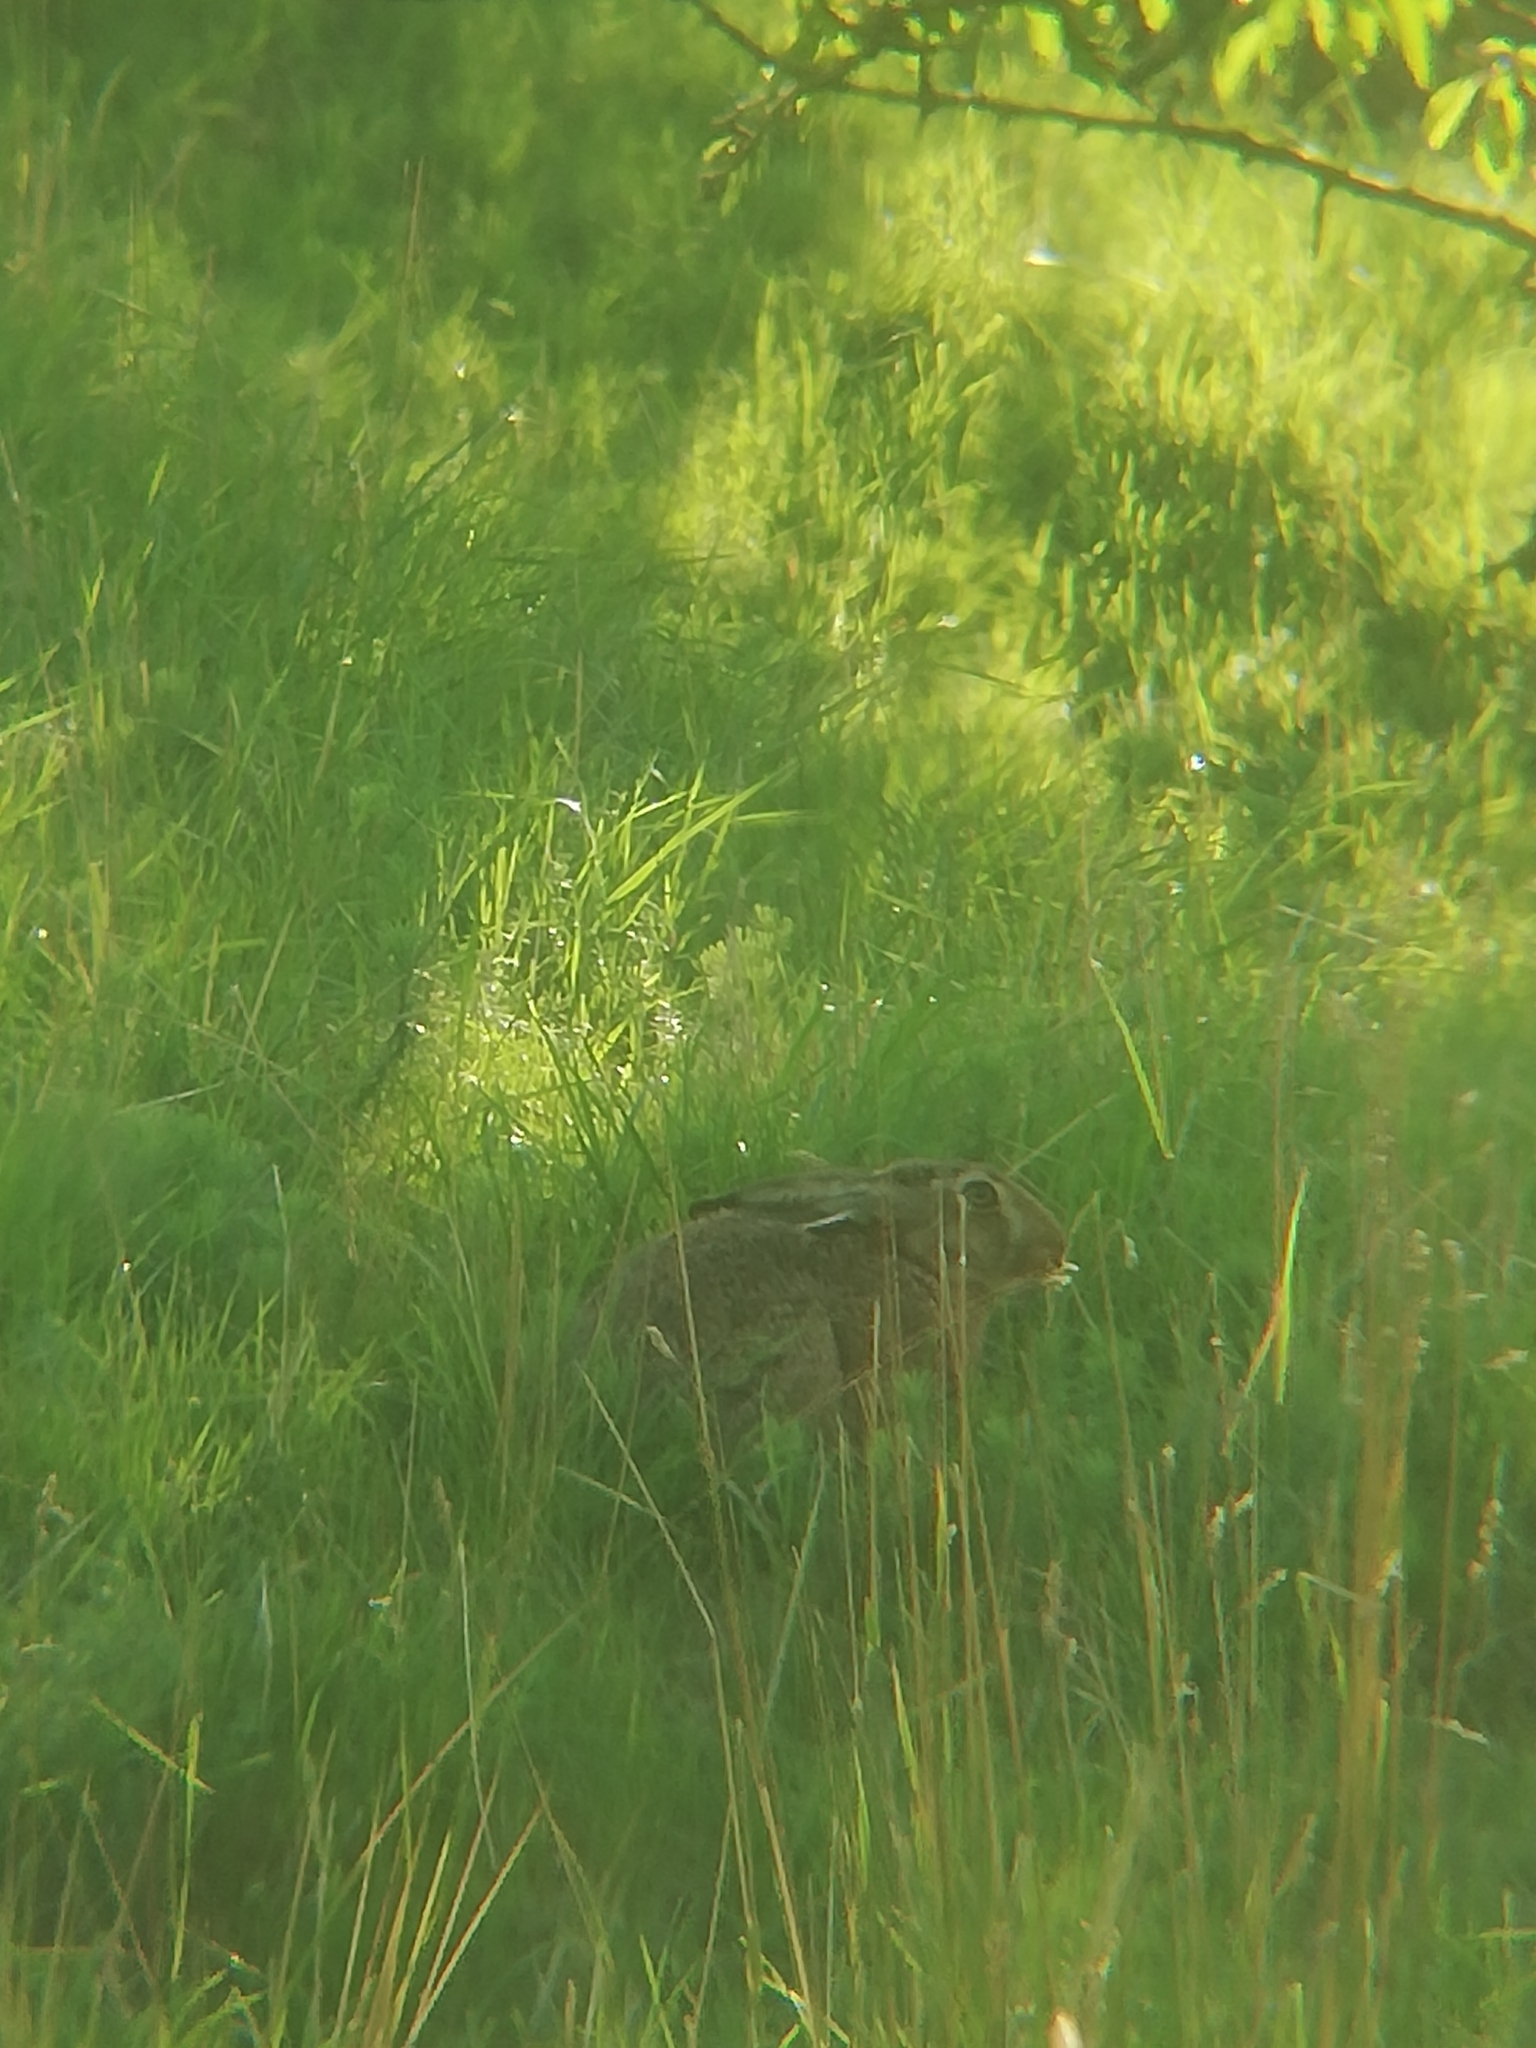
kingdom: Animalia
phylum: Chordata
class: Mammalia
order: Lagomorpha
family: Leporidae
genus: Lepus
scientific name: Lepus europaeus
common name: European hare
